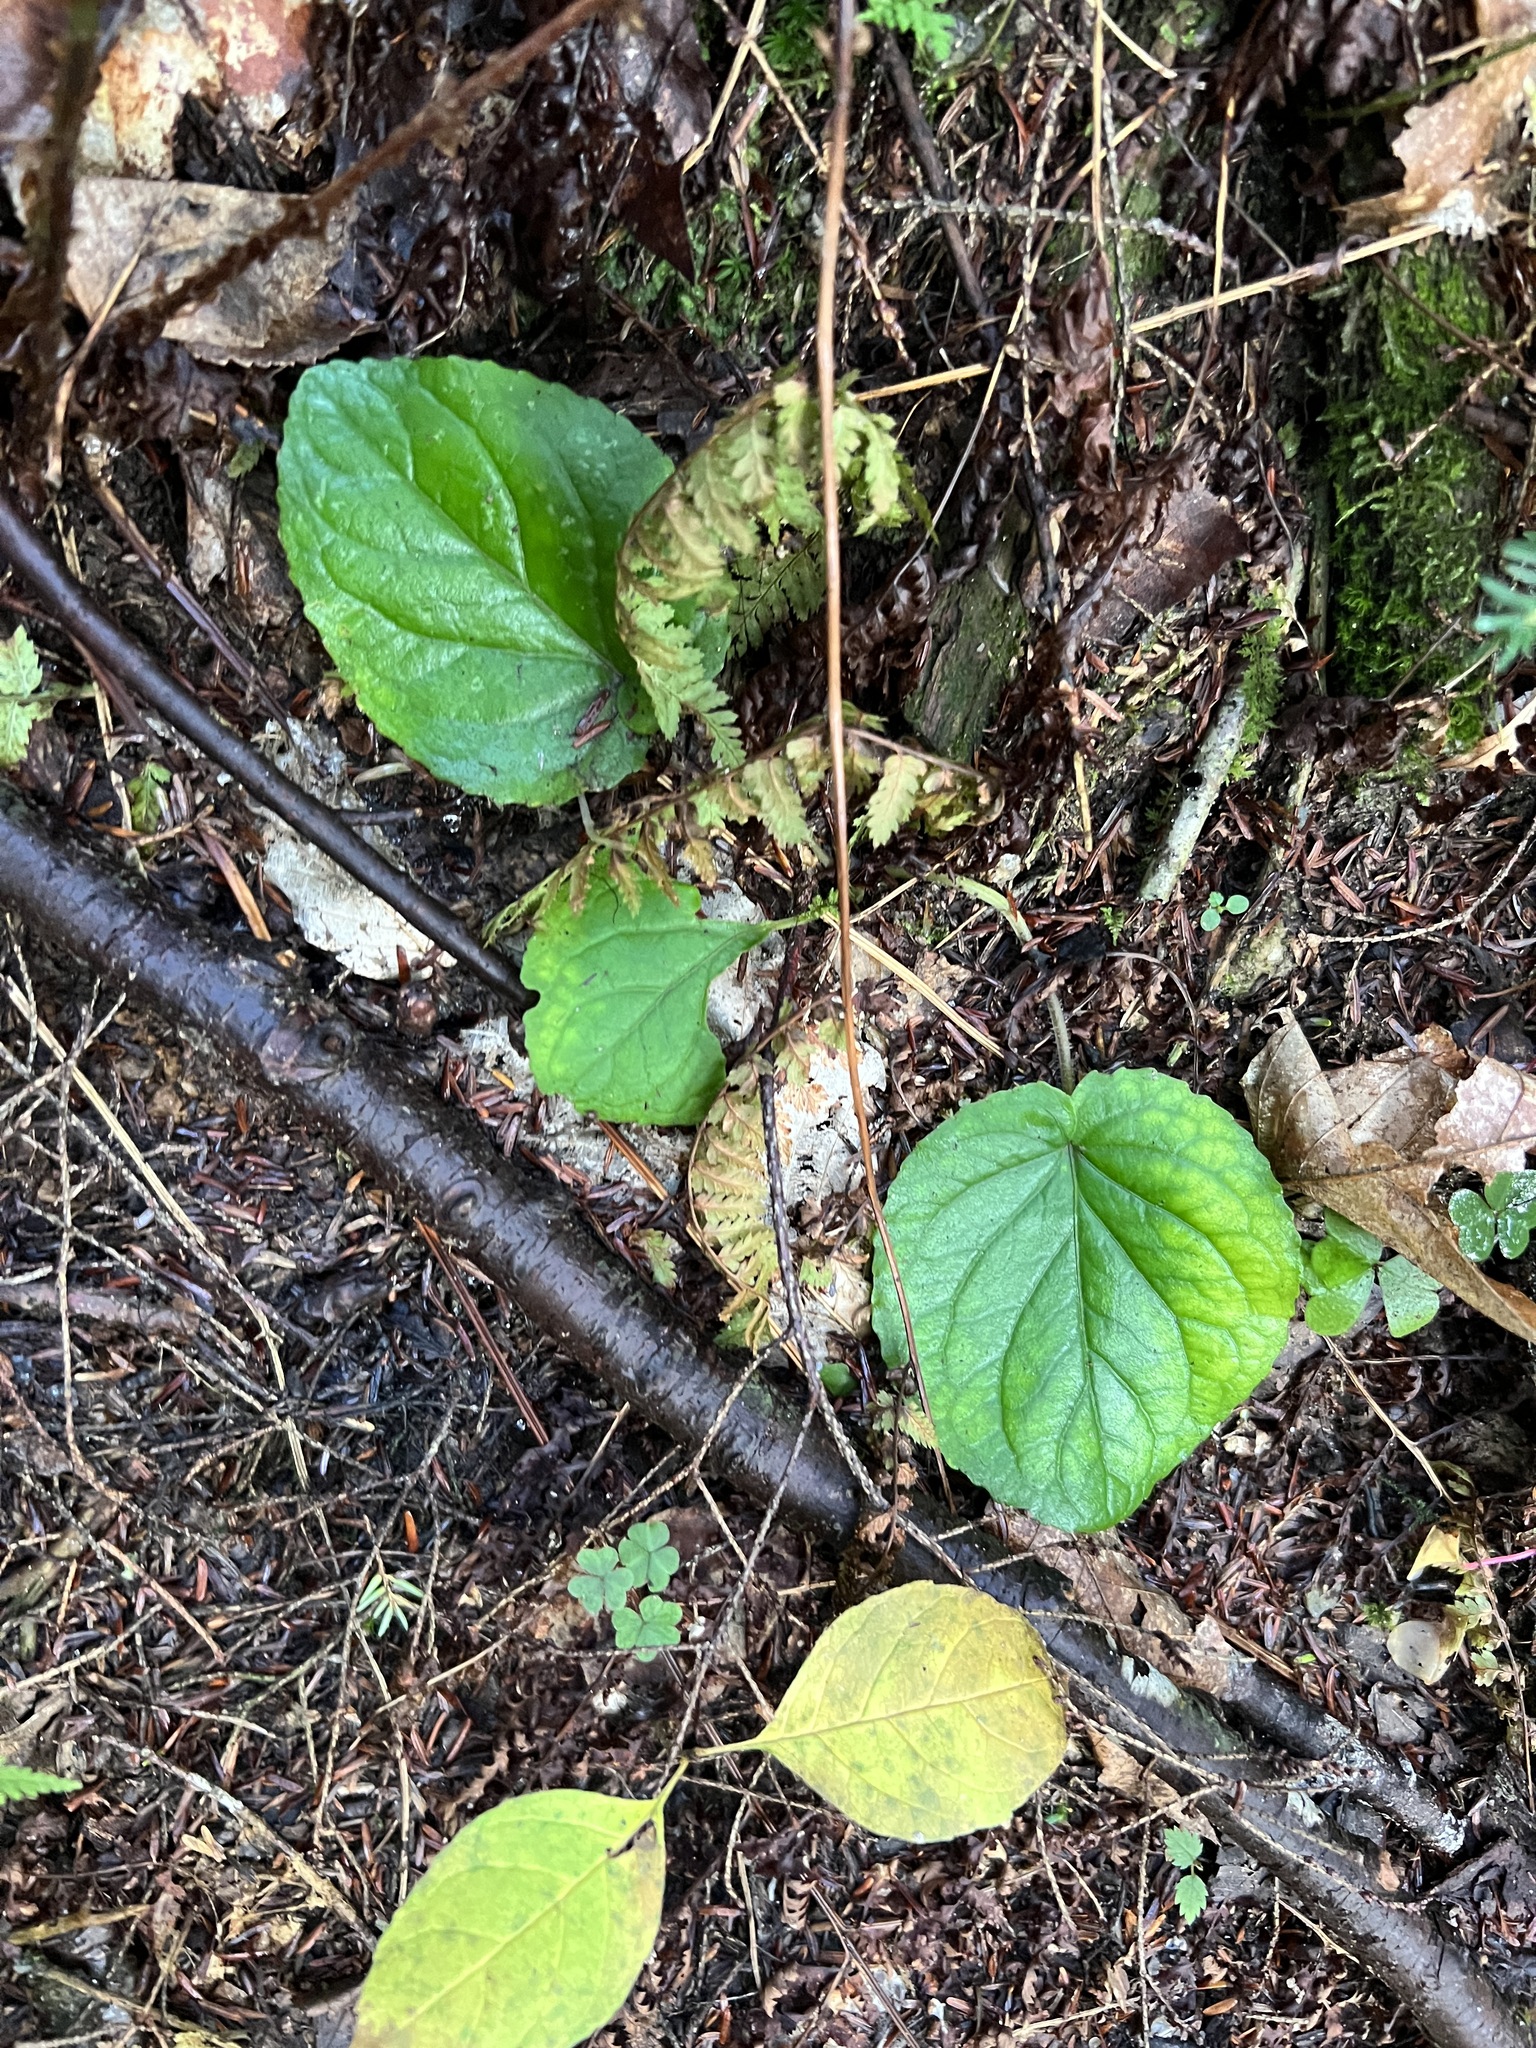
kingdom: Plantae
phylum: Tracheophyta
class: Magnoliopsida
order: Malpighiales
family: Violaceae
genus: Viola
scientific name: Viola rotundifolia
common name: Early yellow violet
